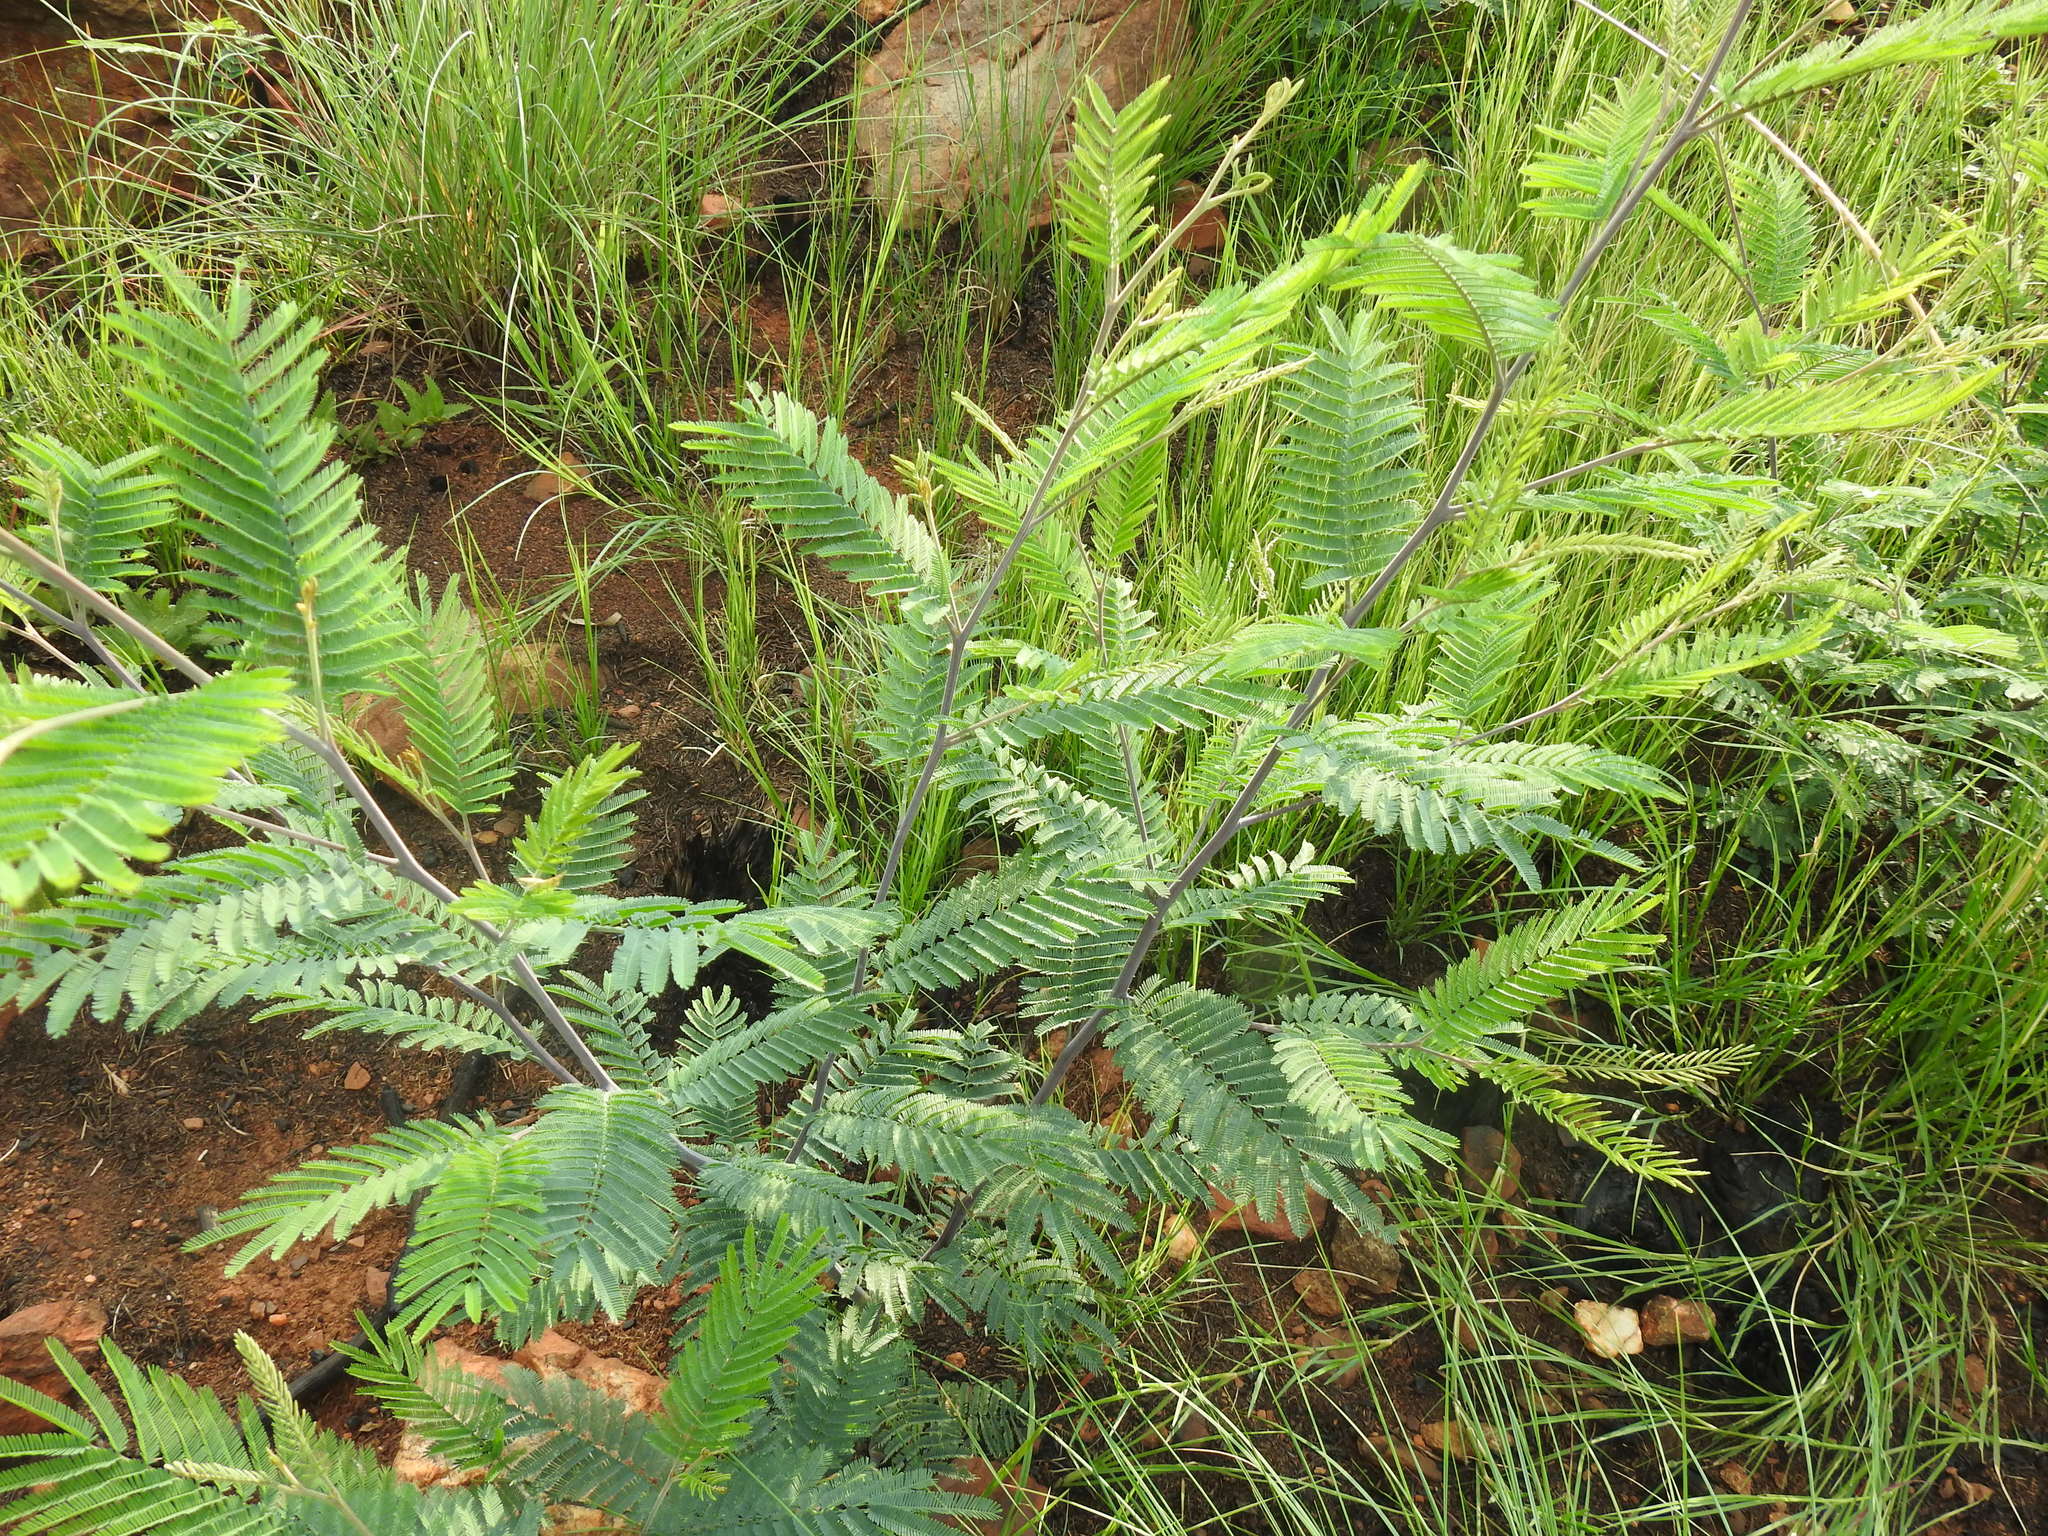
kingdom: Plantae
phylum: Tracheophyta
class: Magnoliopsida
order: Fabales
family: Fabaceae
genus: Acacia
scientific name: Acacia dealbata
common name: Silver wattle
